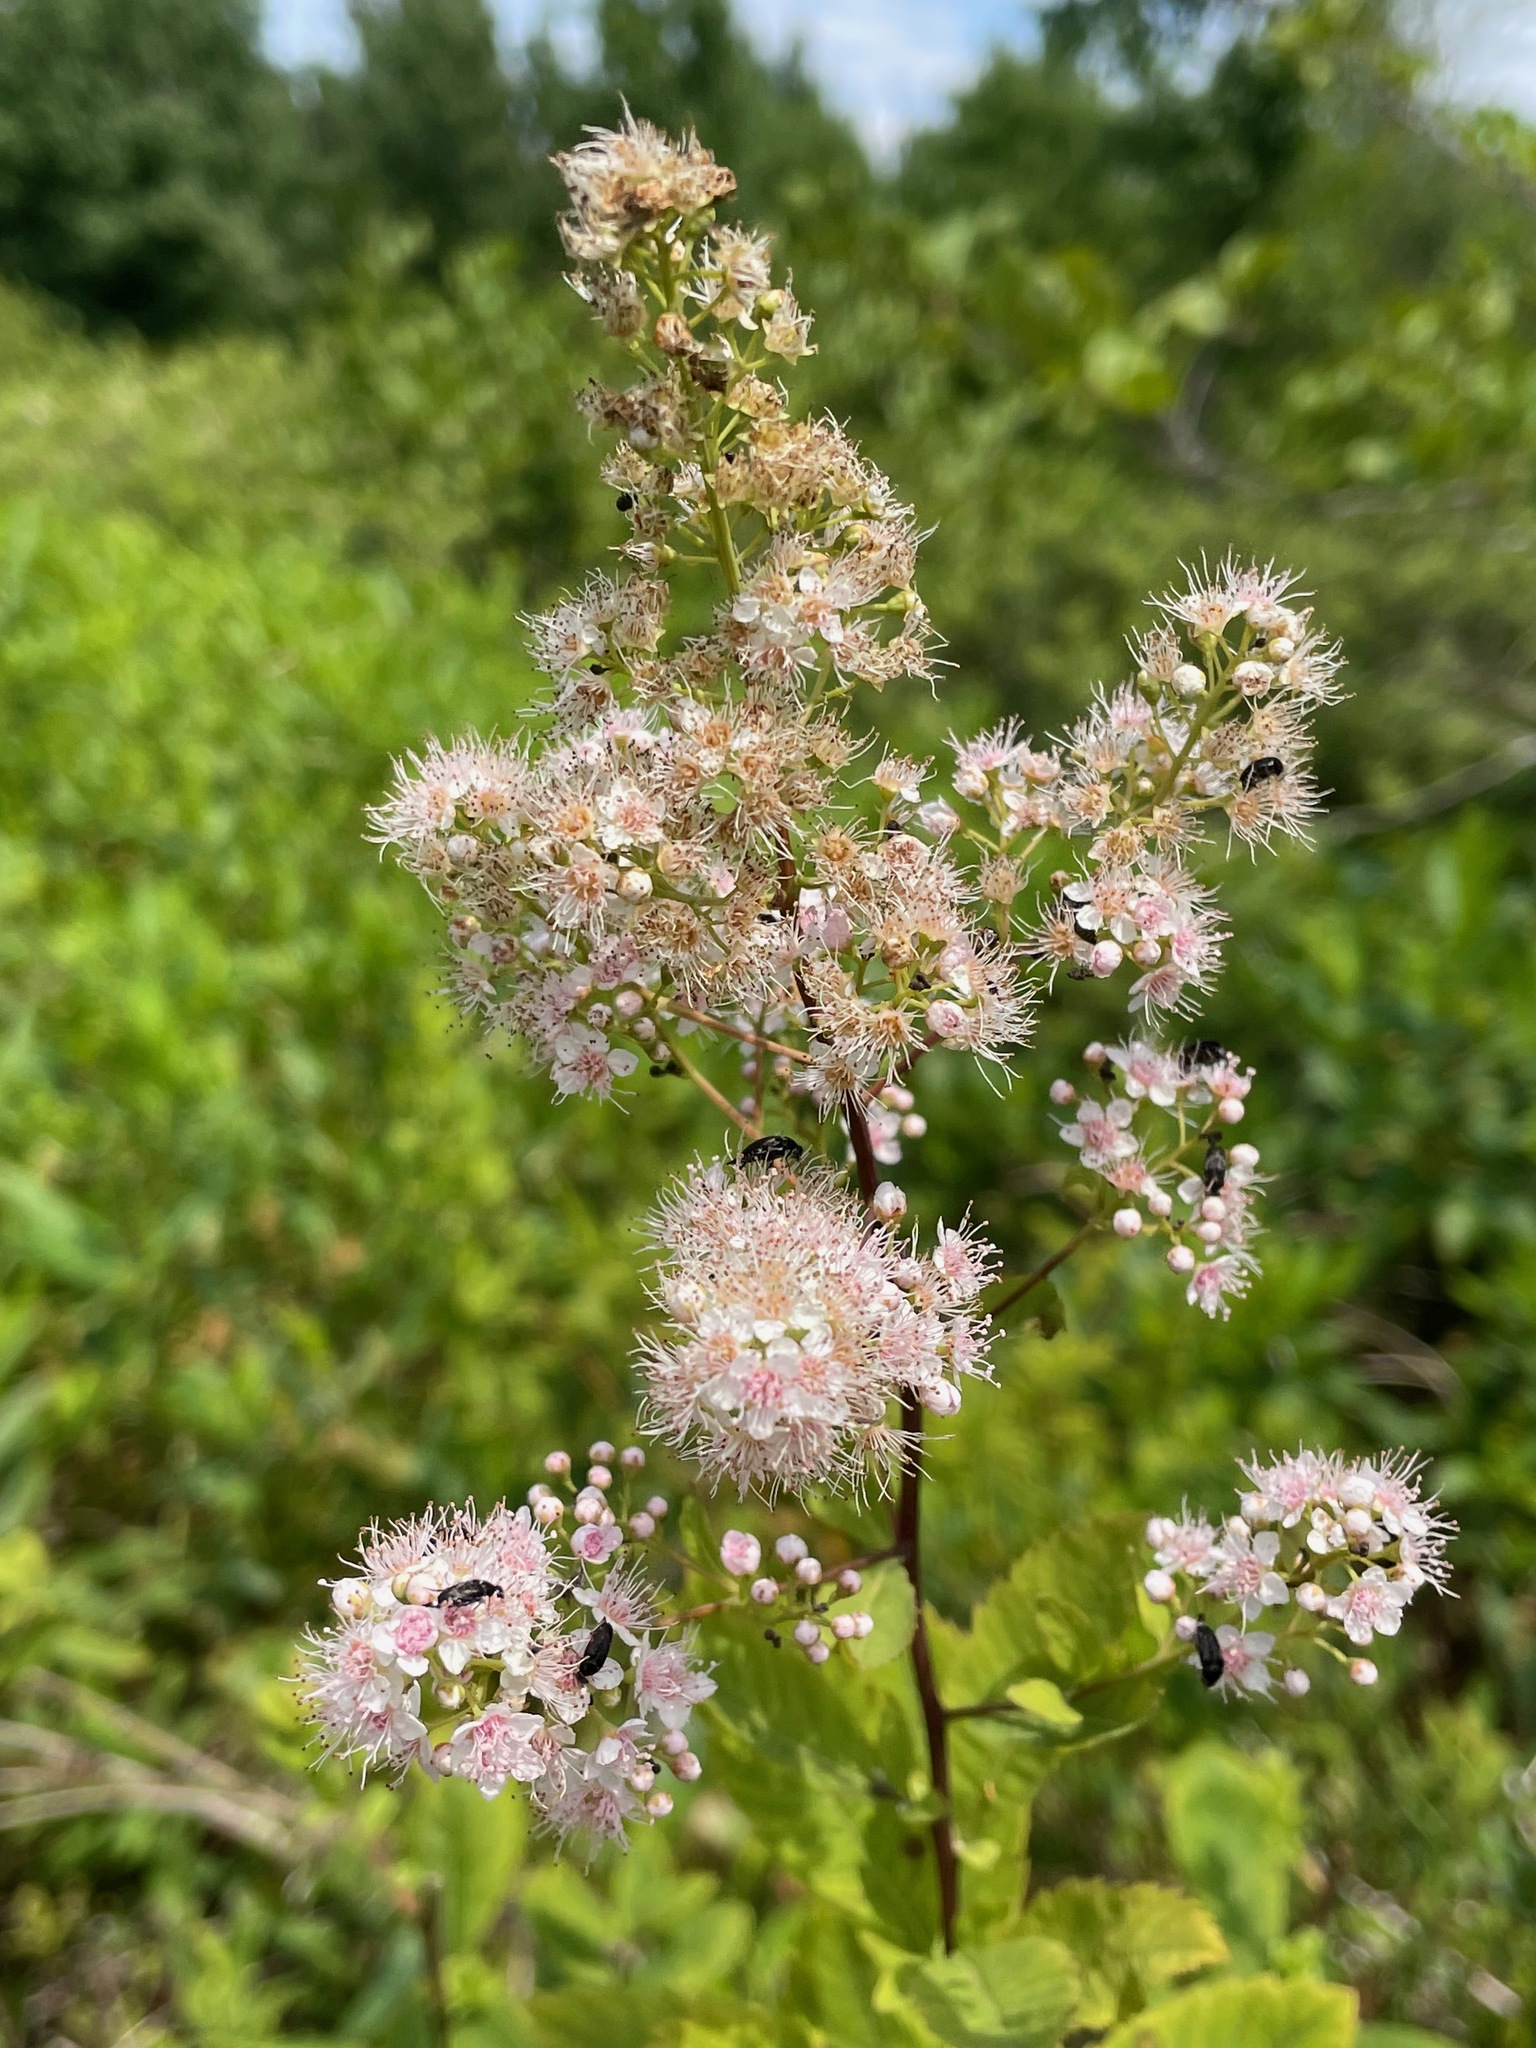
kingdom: Plantae
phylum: Tracheophyta
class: Magnoliopsida
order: Rosales
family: Rosaceae
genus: Spiraea
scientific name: Spiraea alba
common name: Pale bridewort
